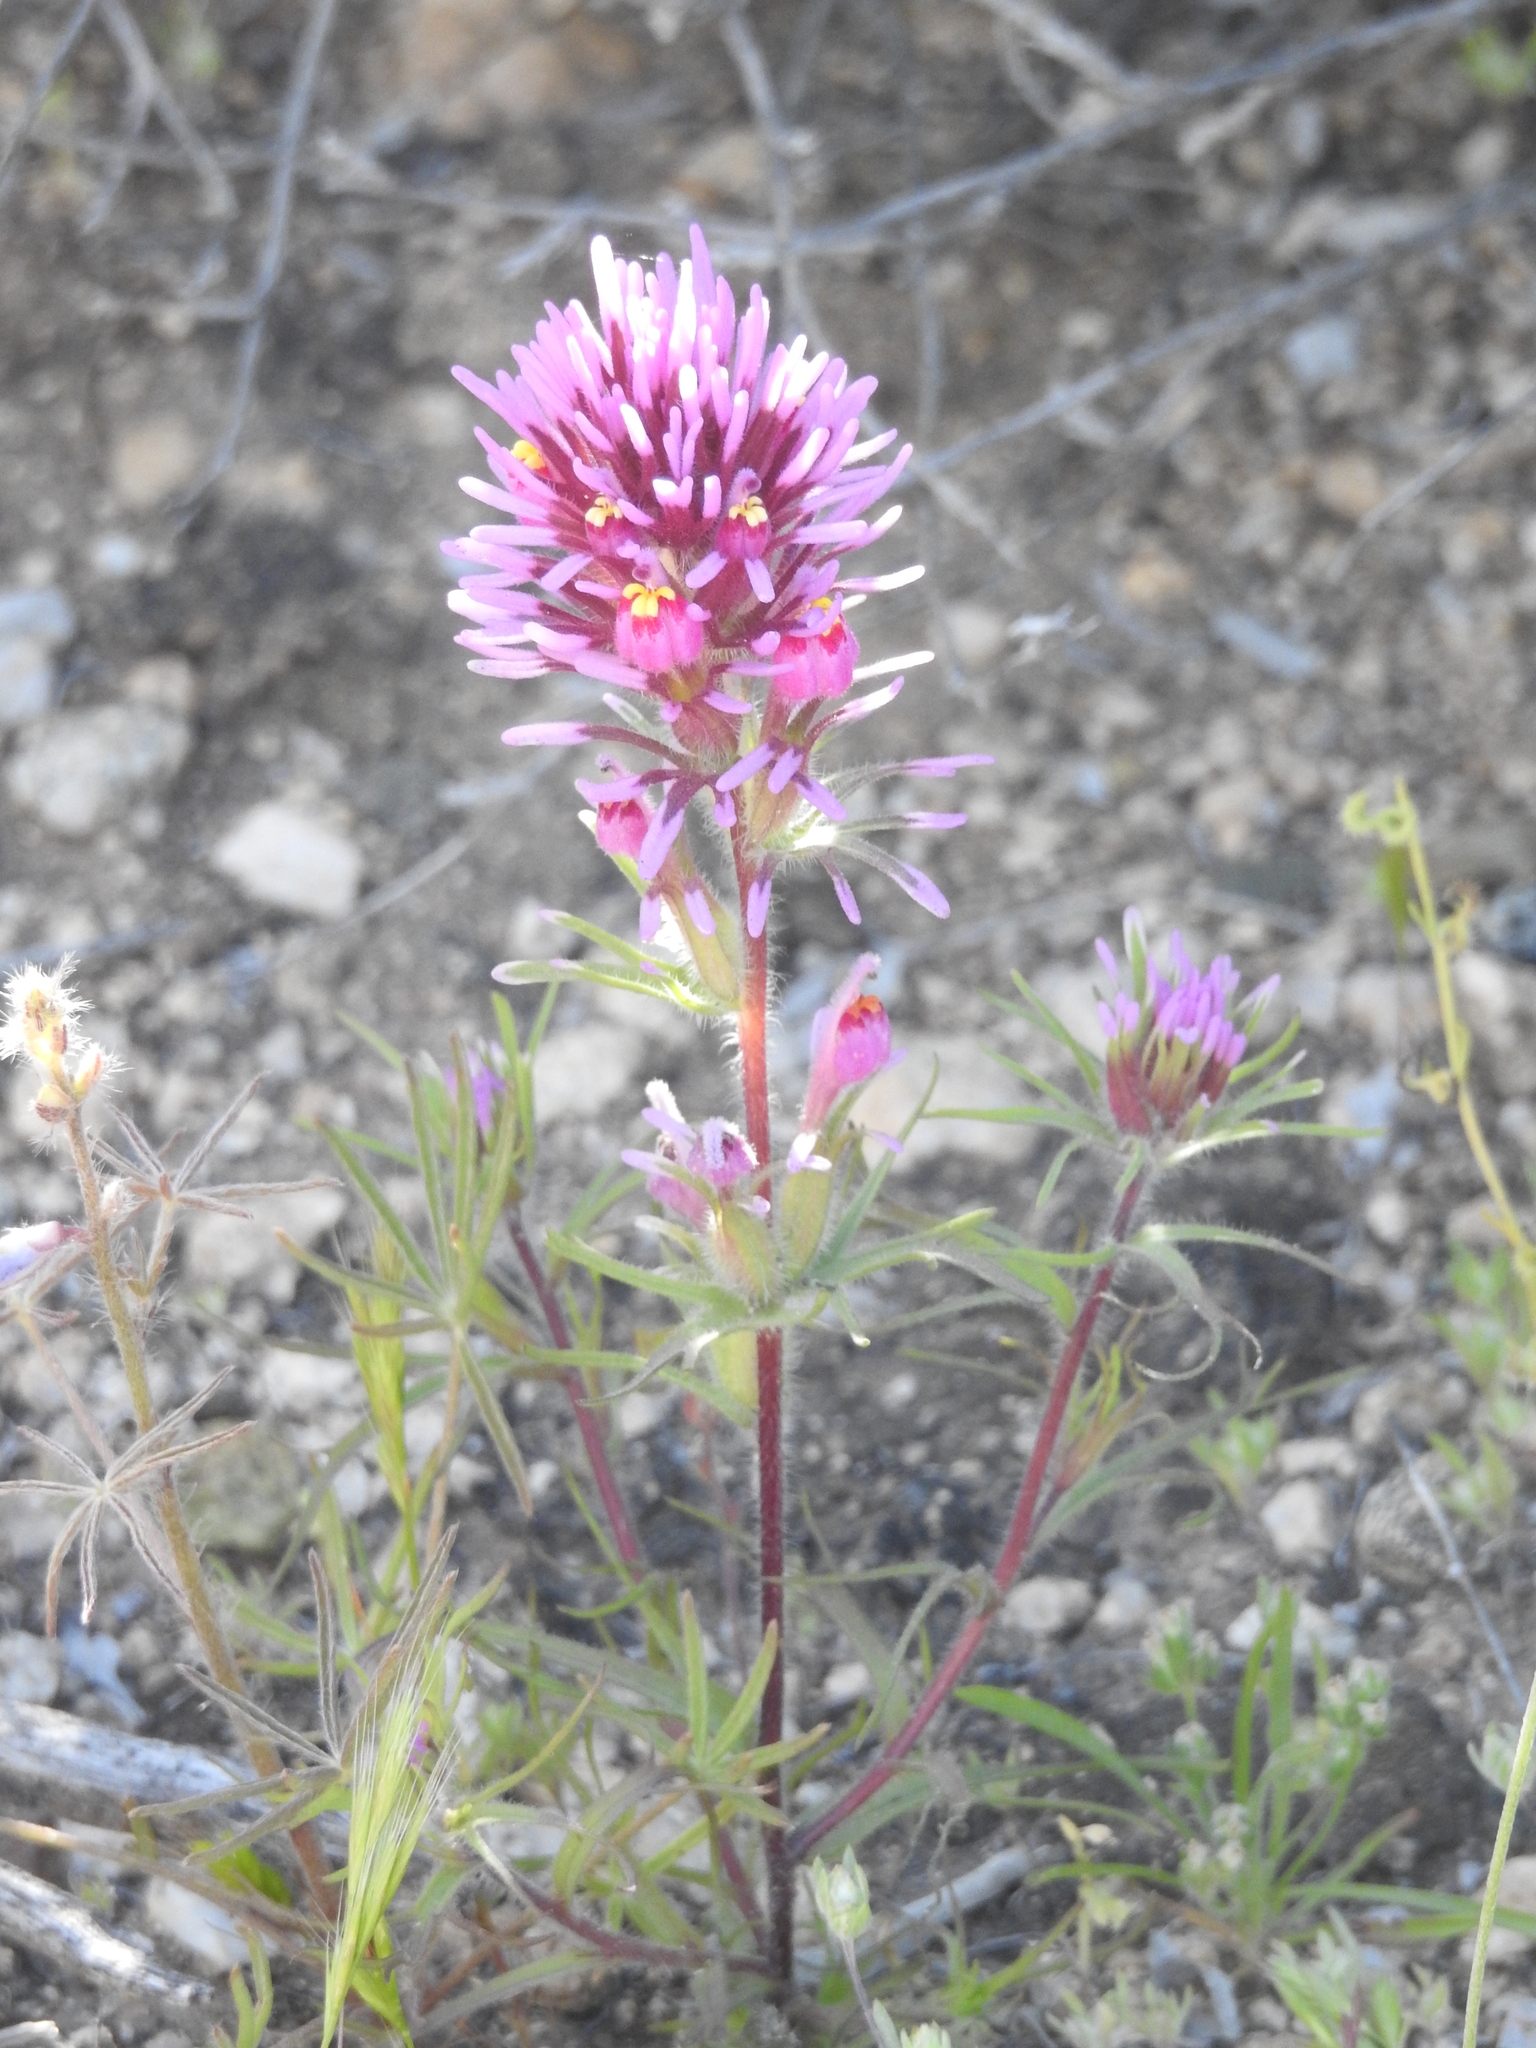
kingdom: Plantae
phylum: Tracheophyta
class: Magnoliopsida
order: Lamiales
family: Orobanchaceae
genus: Castilleja
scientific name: Castilleja exserta
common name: Purple owl-clover
